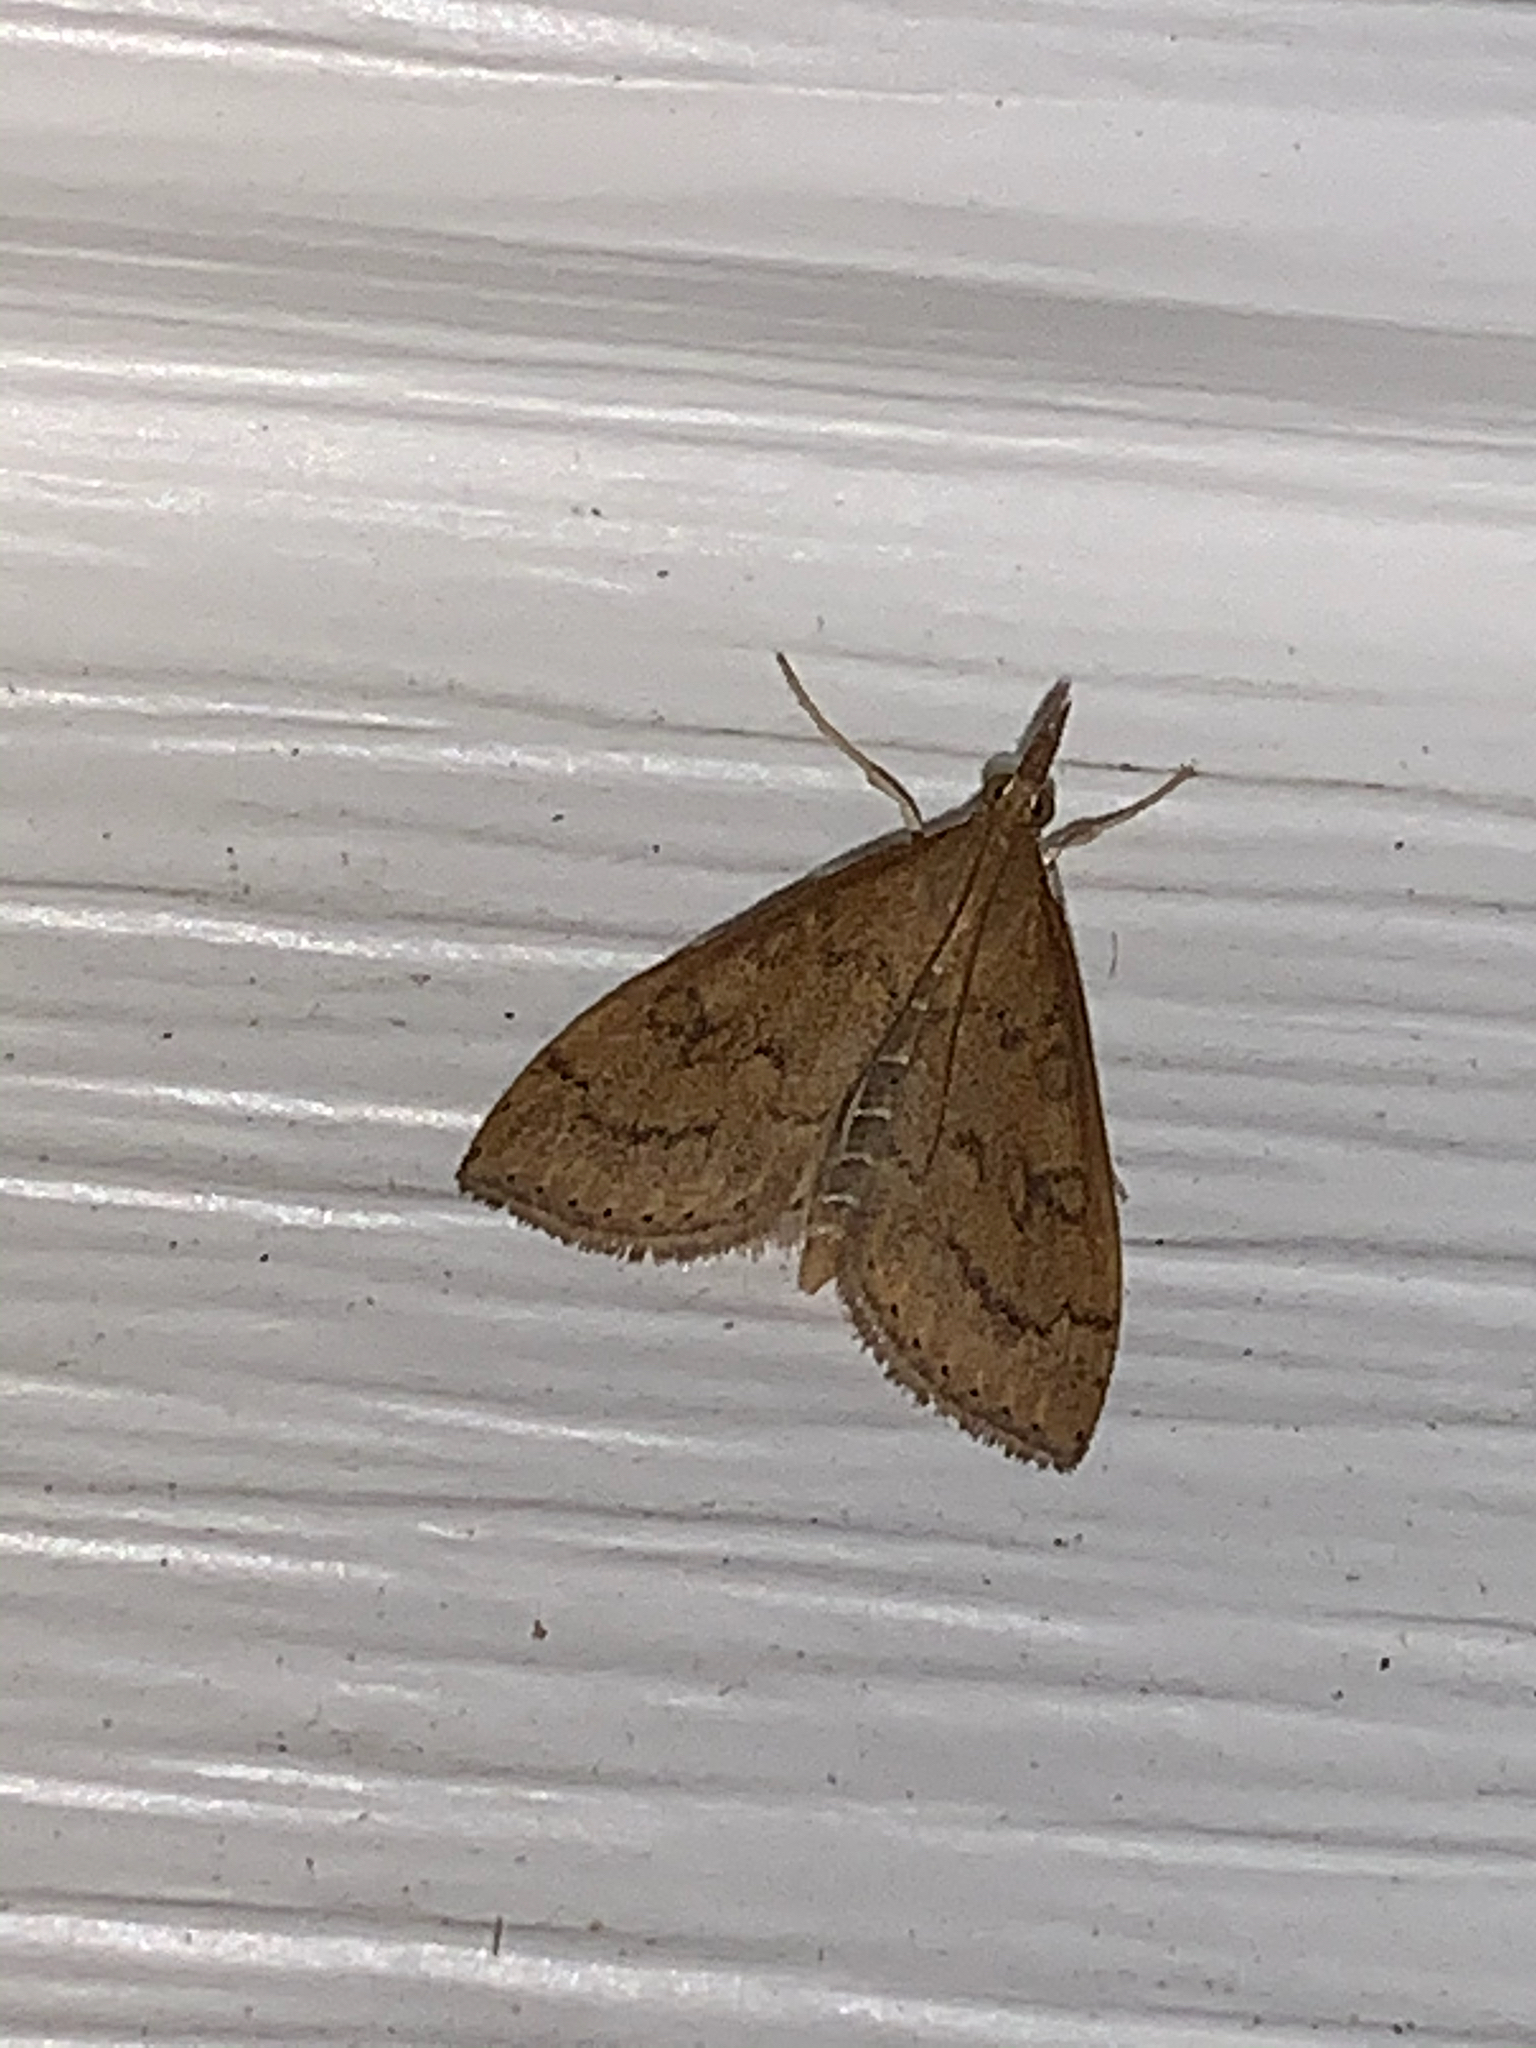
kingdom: Animalia
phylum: Arthropoda
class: Insecta
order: Lepidoptera
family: Crambidae
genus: Udea
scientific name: Udea rubigalis
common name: Celery leaftier moth
